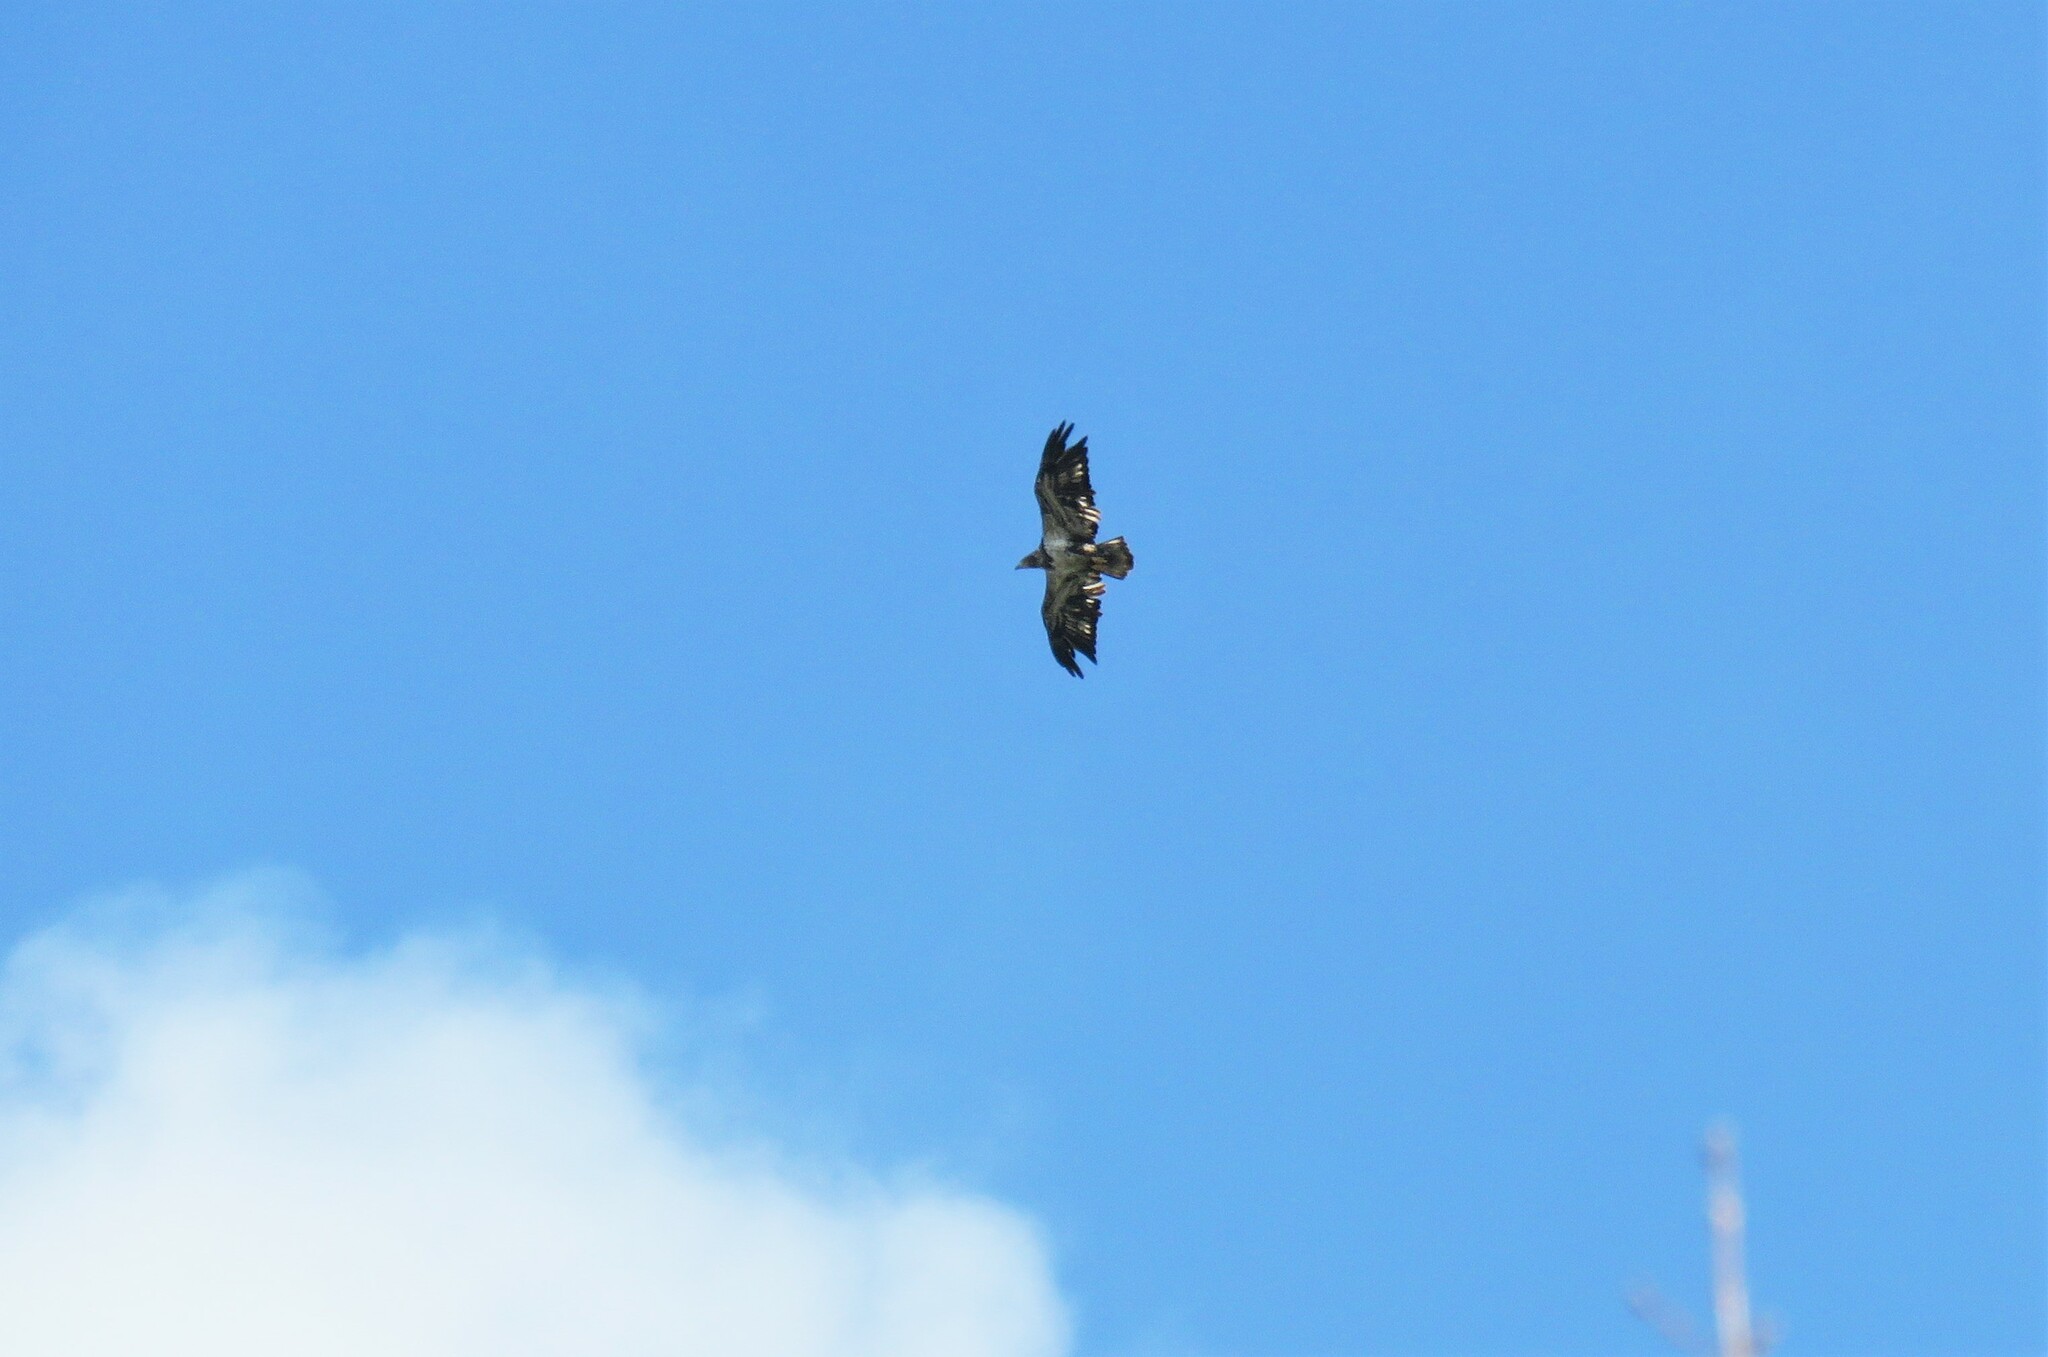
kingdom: Animalia
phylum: Chordata
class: Aves
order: Accipitriformes
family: Accipitridae
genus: Haliaeetus
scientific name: Haliaeetus leucocephalus
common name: Bald eagle
